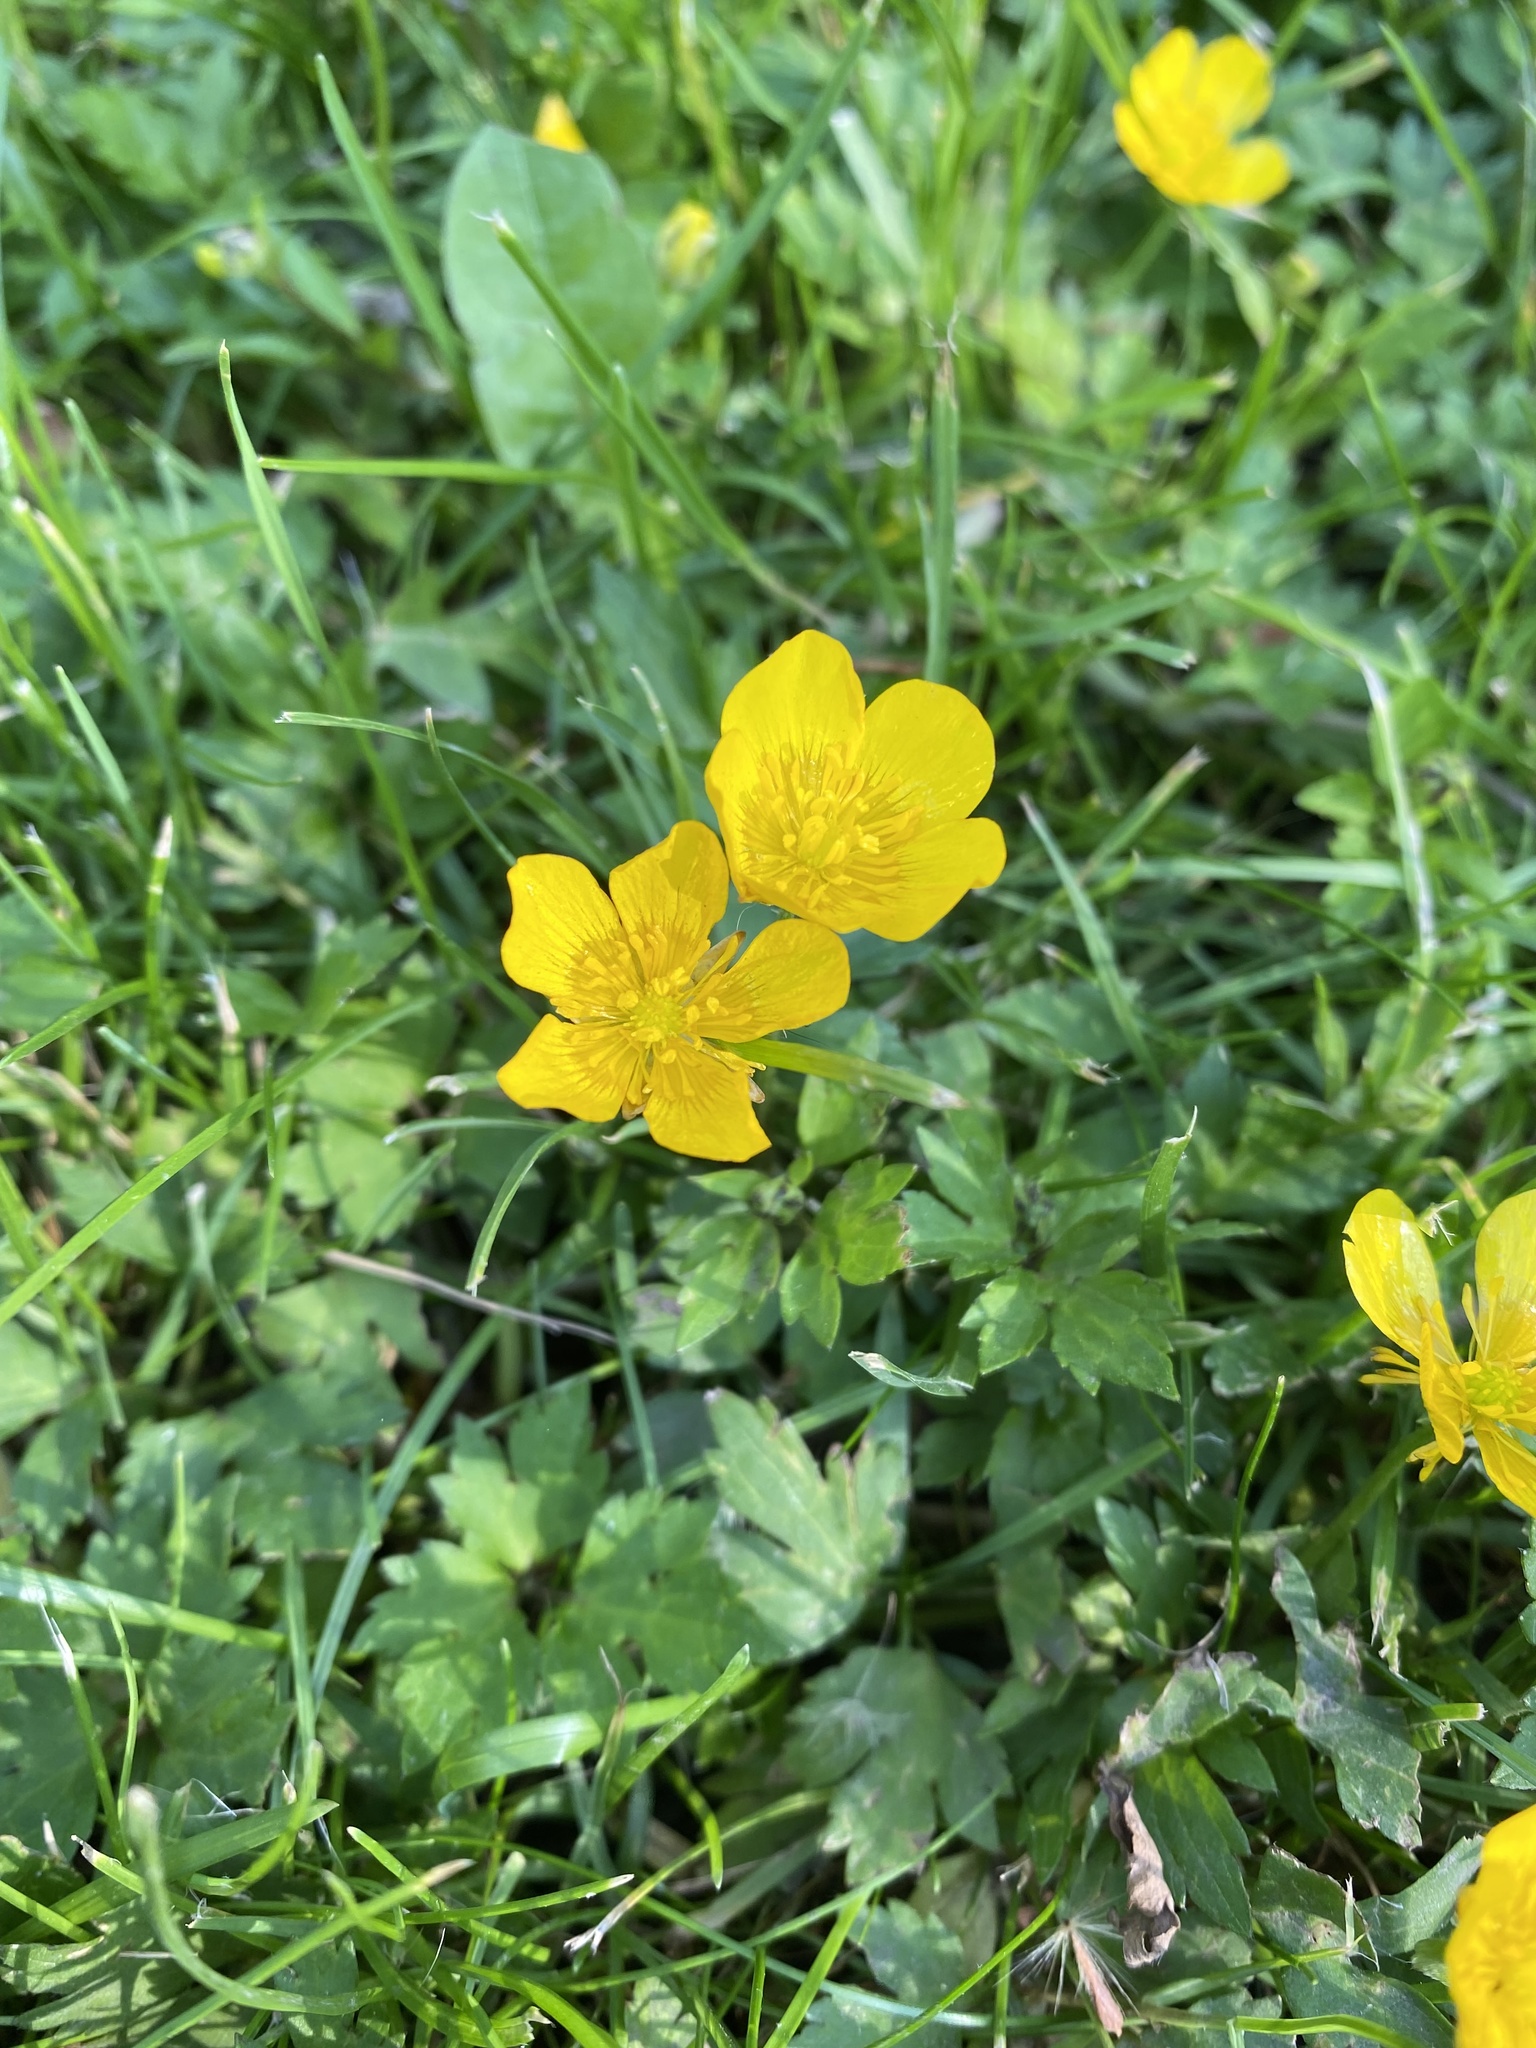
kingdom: Plantae
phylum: Tracheophyta
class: Magnoliopsida
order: Ranunculales
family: Ranunculaceae
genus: Ranunculus
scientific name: Ranunculus repens
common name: Creeping buttercup
